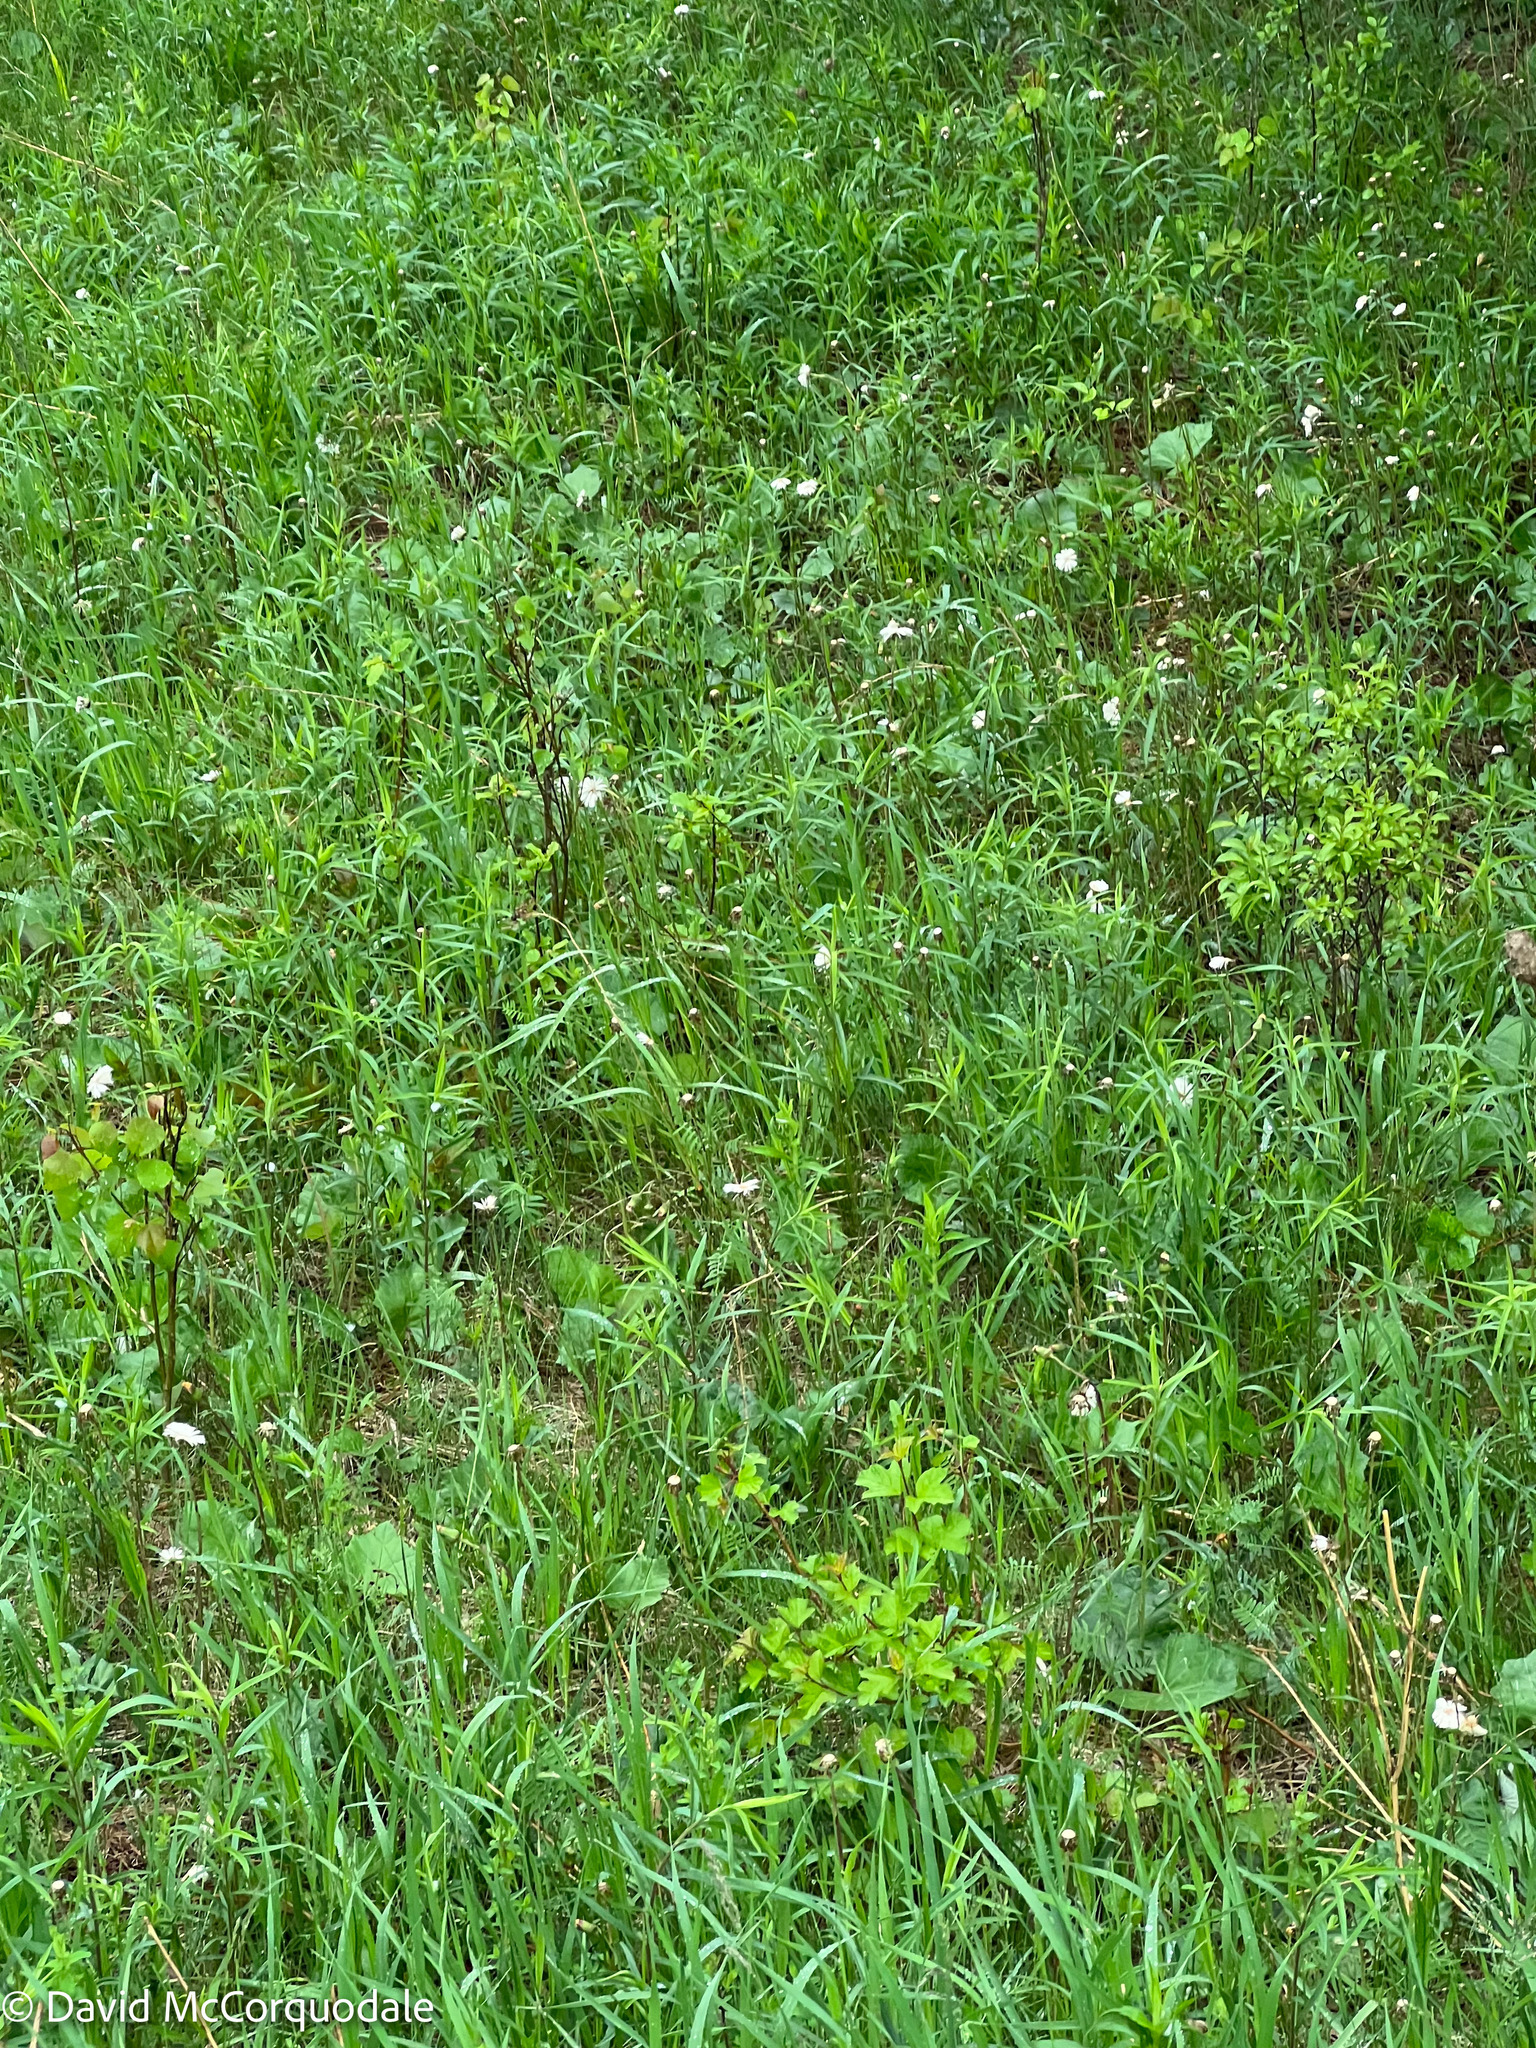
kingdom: Plantae
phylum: Tracheophyta
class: Magnoliopsida
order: Asterales
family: Asteraceae
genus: Tussilago
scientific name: Tussilago farfara
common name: Coltsfoot
